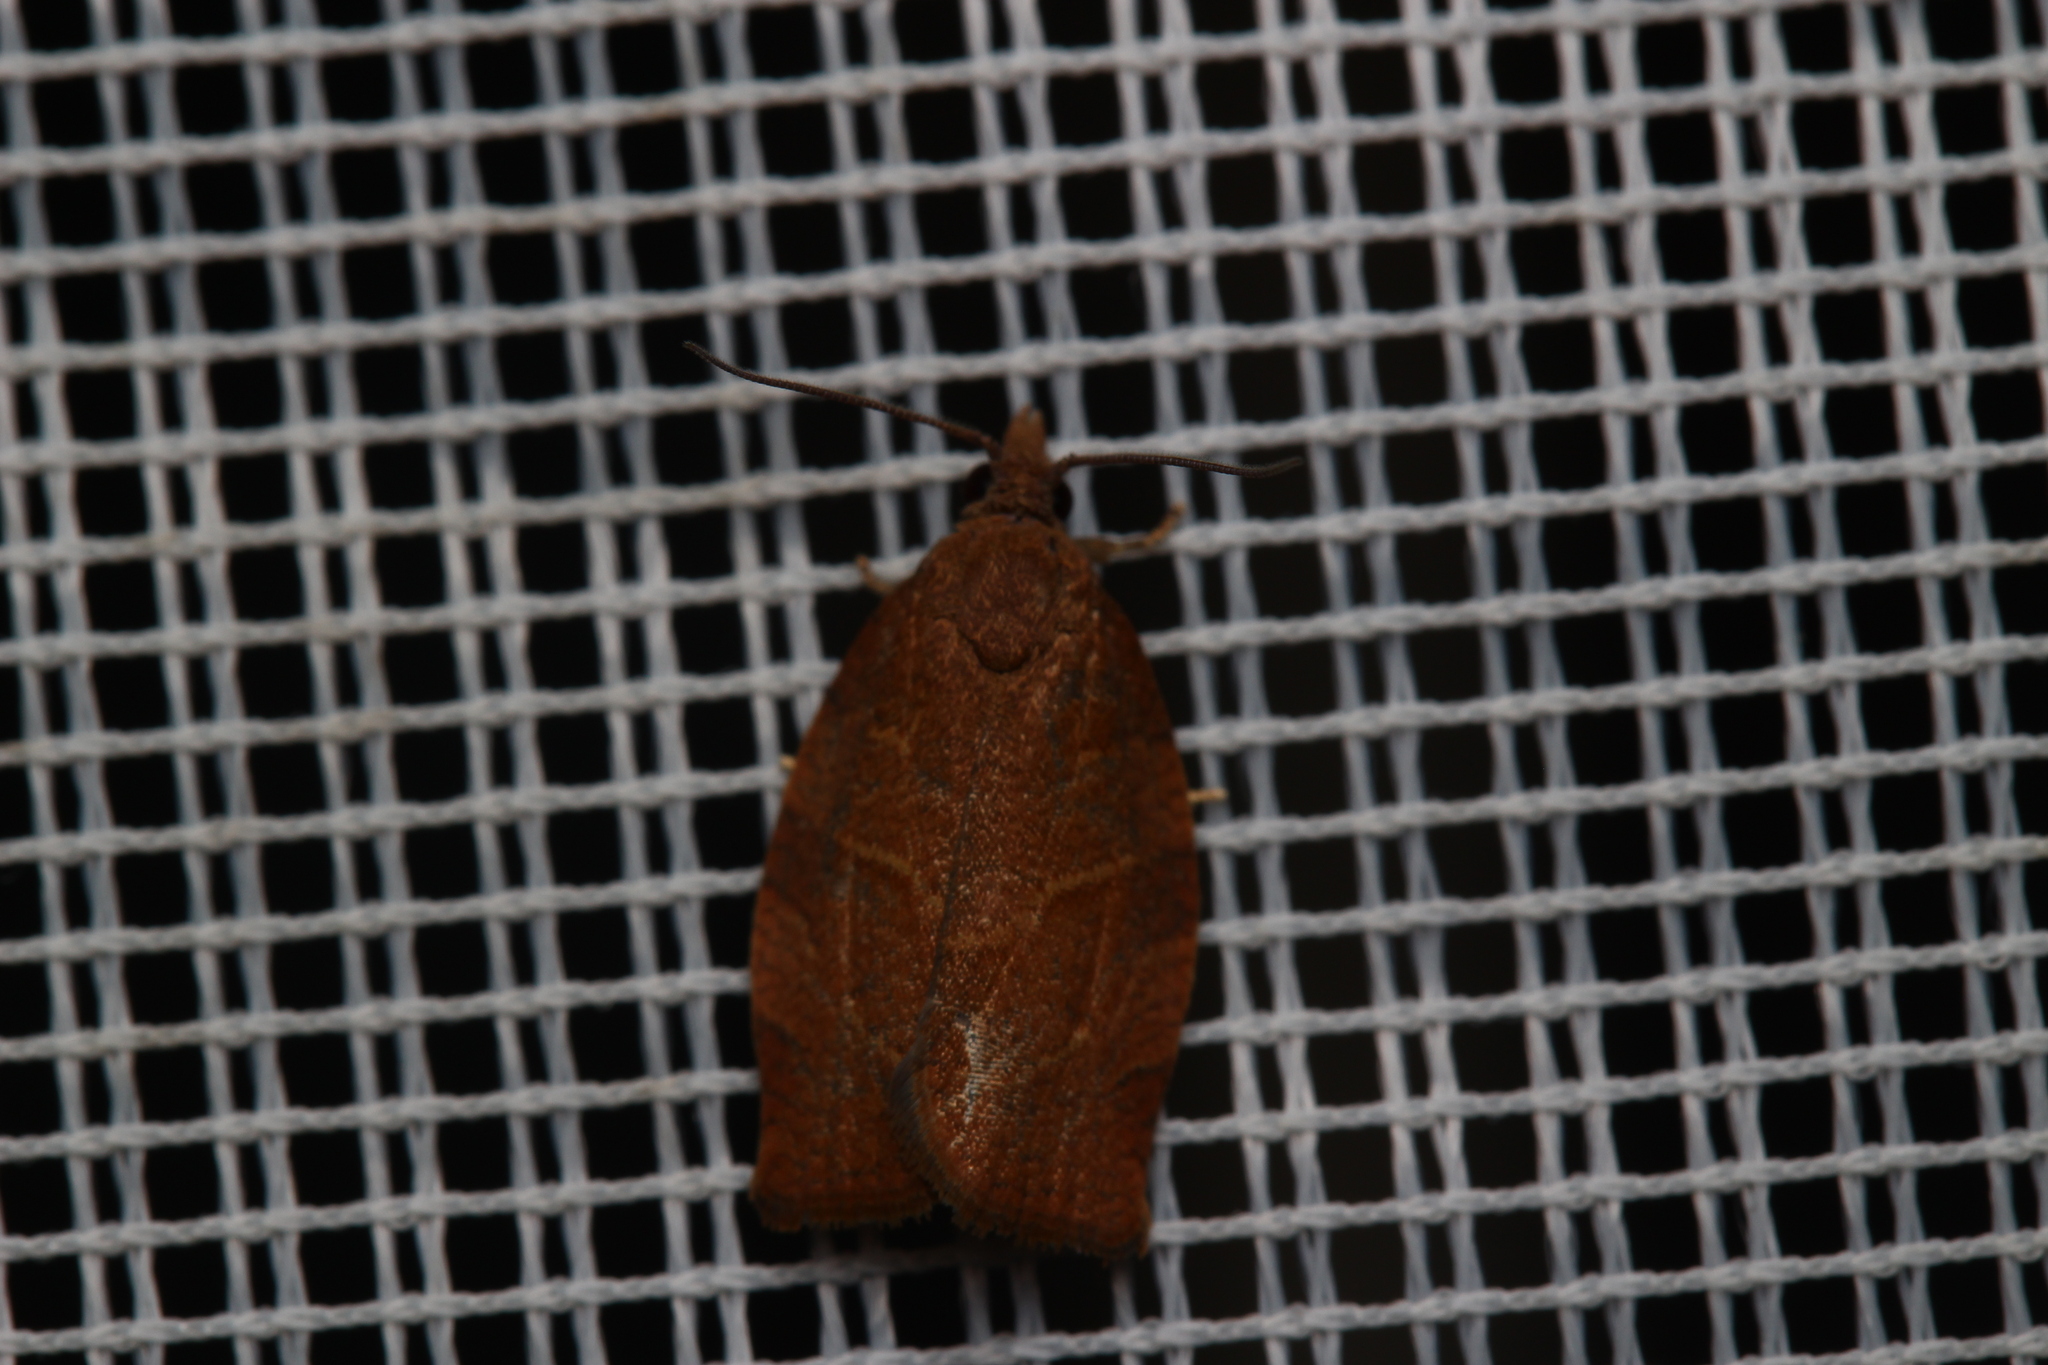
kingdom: Animalia
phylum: Arthropoda
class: Insecta
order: Lepidoptera
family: Tortricidae
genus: Pandemis
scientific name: Pandemis heparana
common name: Dark fruit-tree tortrix
